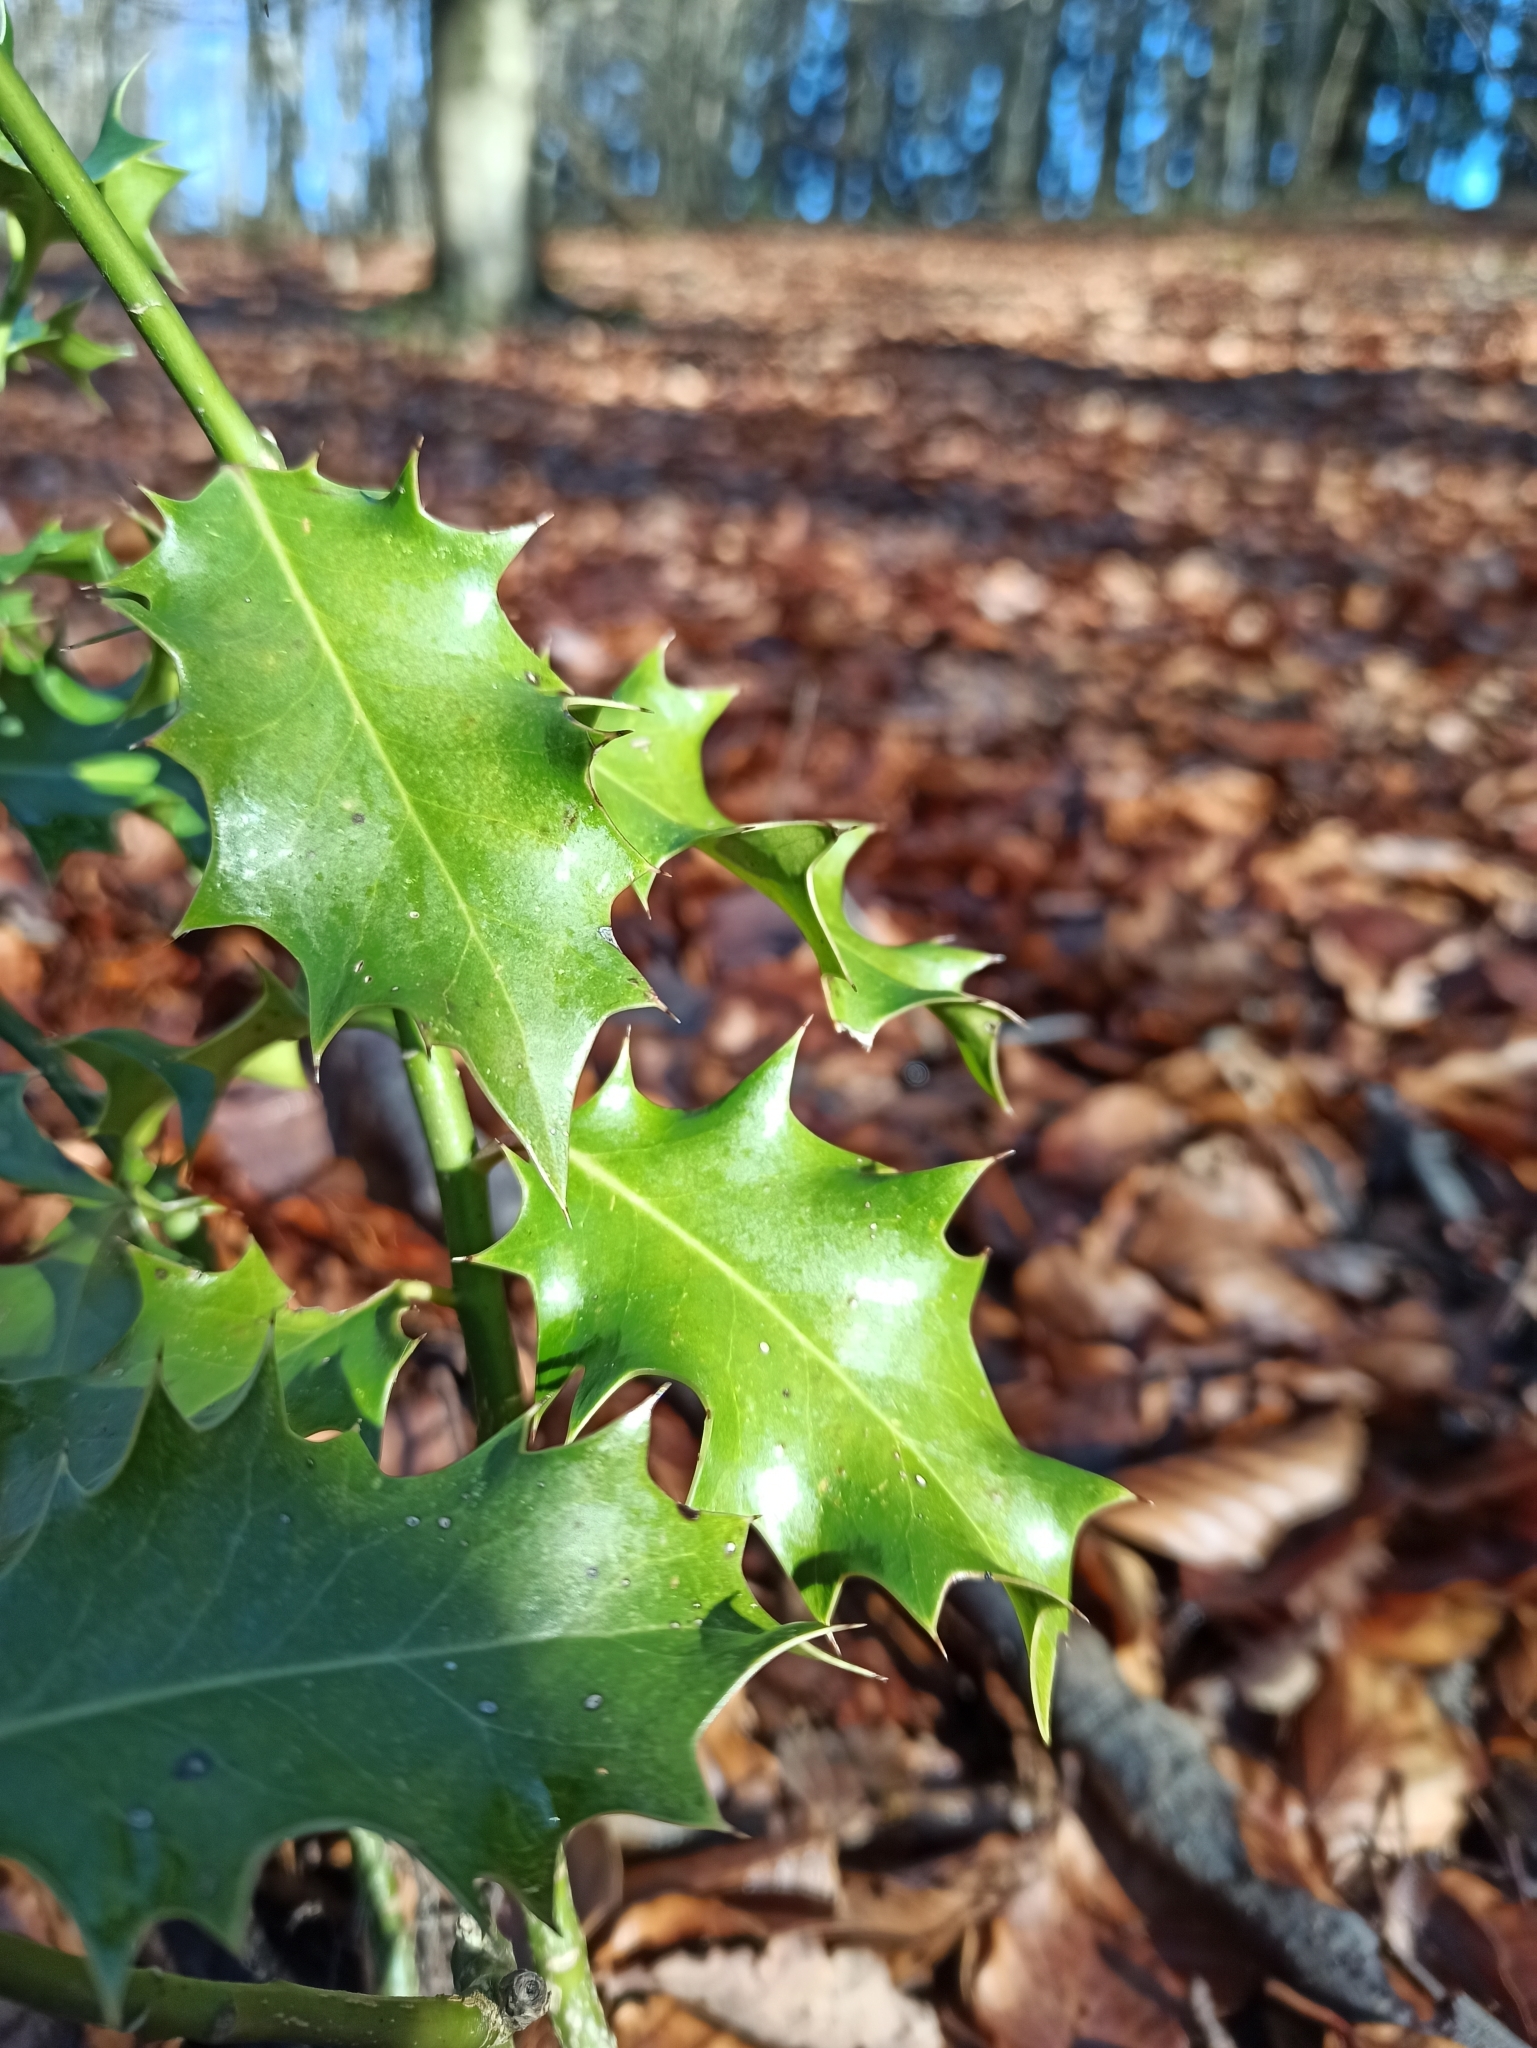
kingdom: Plantae
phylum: Tracheophyta
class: Magnoliopsida
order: Aquifoliales
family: Aquifoliaceae
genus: Ilex
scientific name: Ilex aquifolium
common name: English holly
